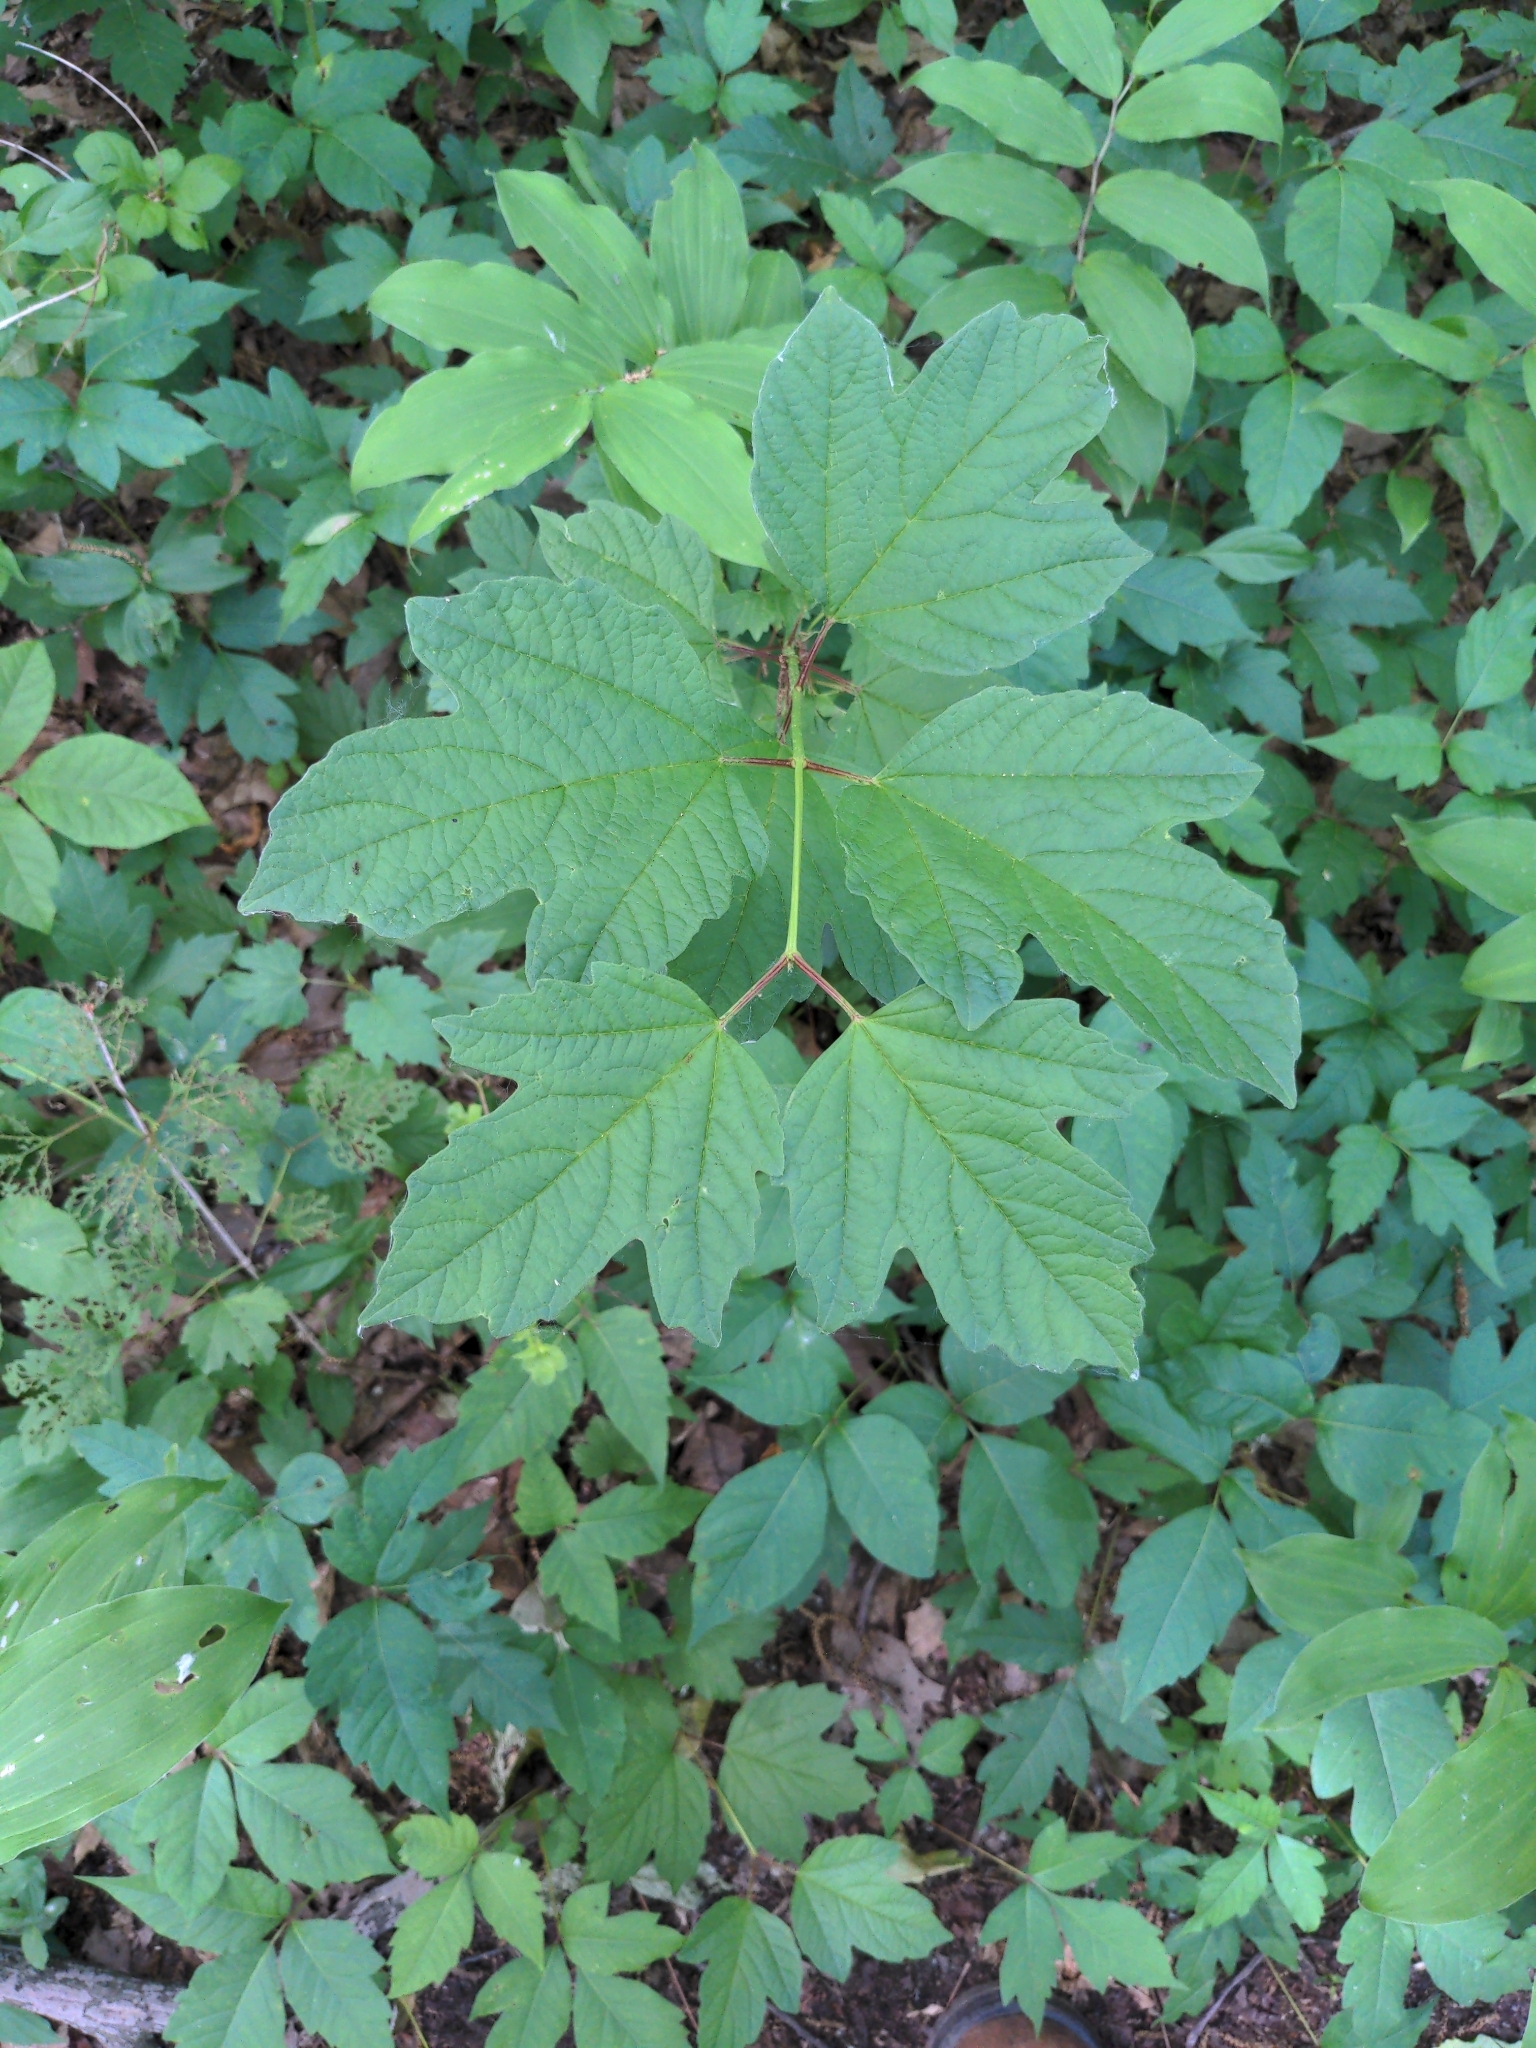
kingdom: Plantae
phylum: Tracheophyta
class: Magnoliopsida
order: Dipsacales
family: Viburnaceae
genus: Viburnum
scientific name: Viburnum opulus
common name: Guelder-rose
